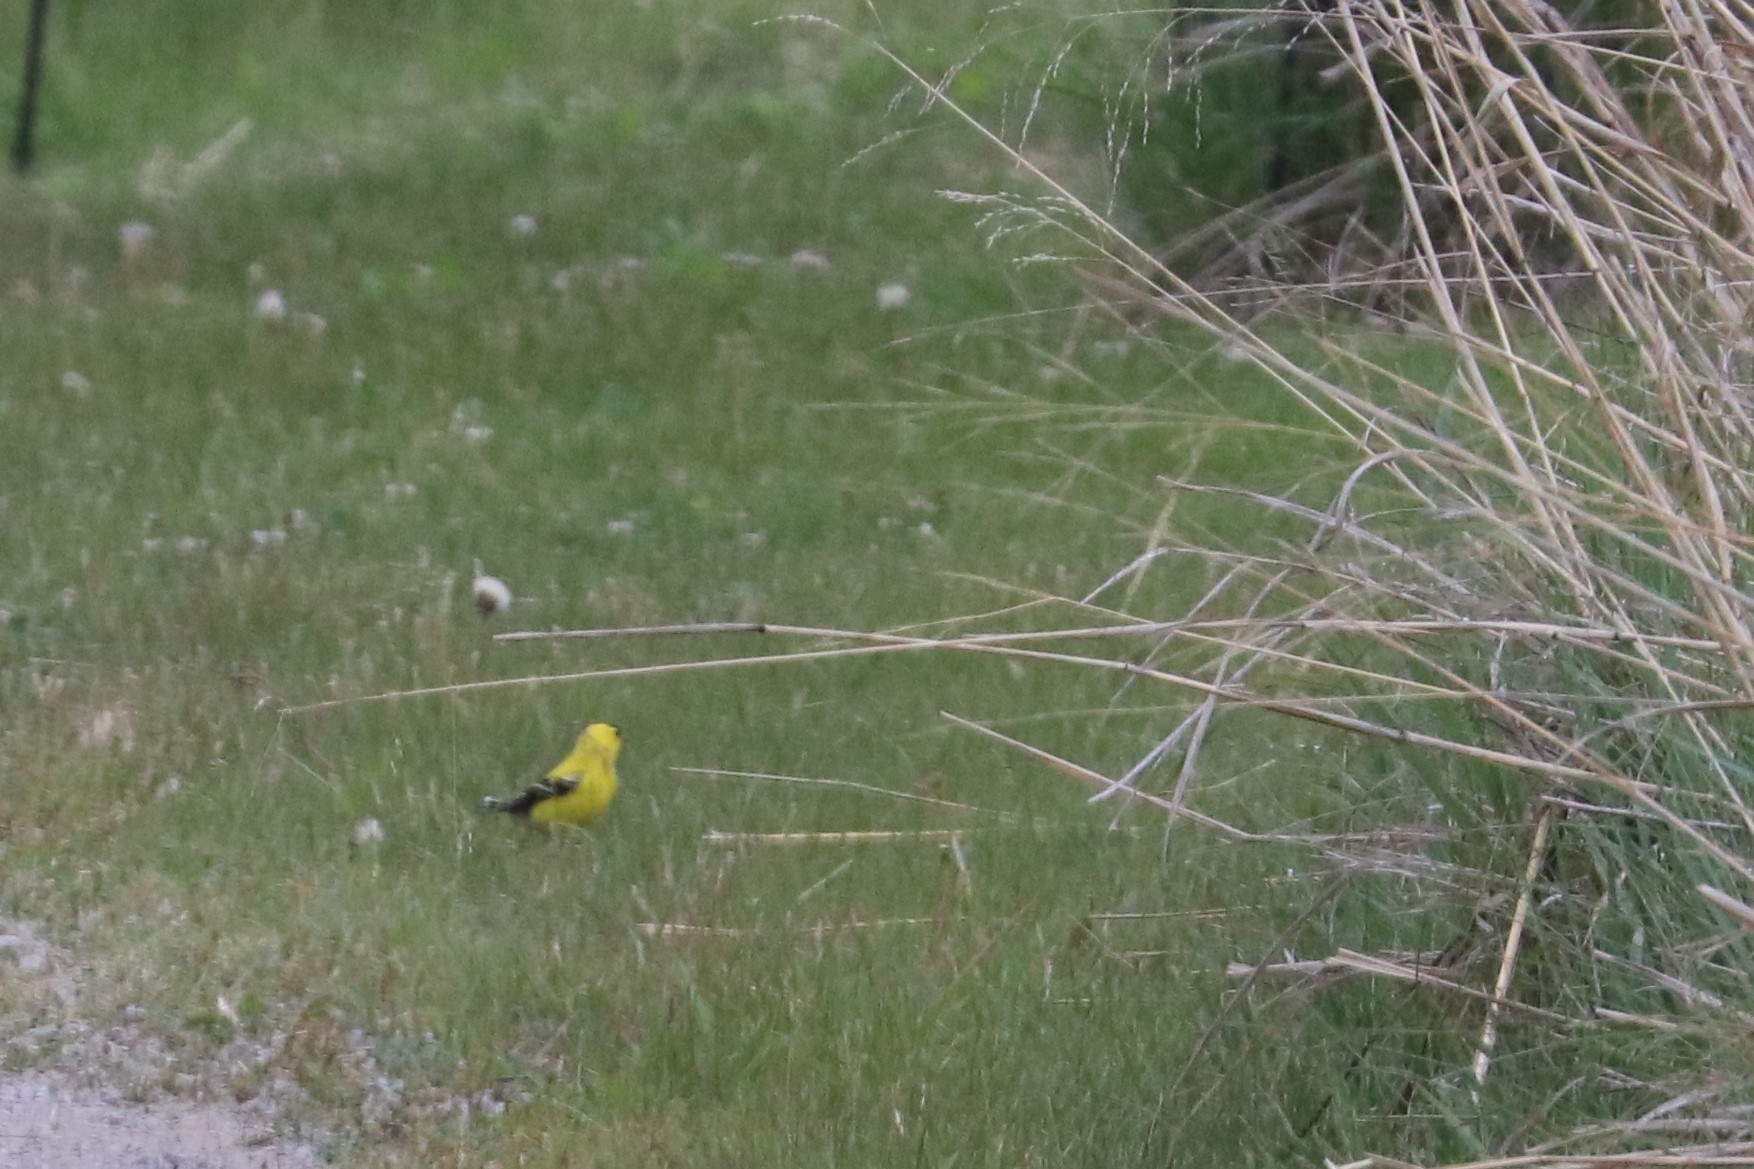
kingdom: Animalia
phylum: Chordata
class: Aves
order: Passeriformes
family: Fringillidae
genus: Spinus
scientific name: Spinus tristis
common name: American goldfinch
